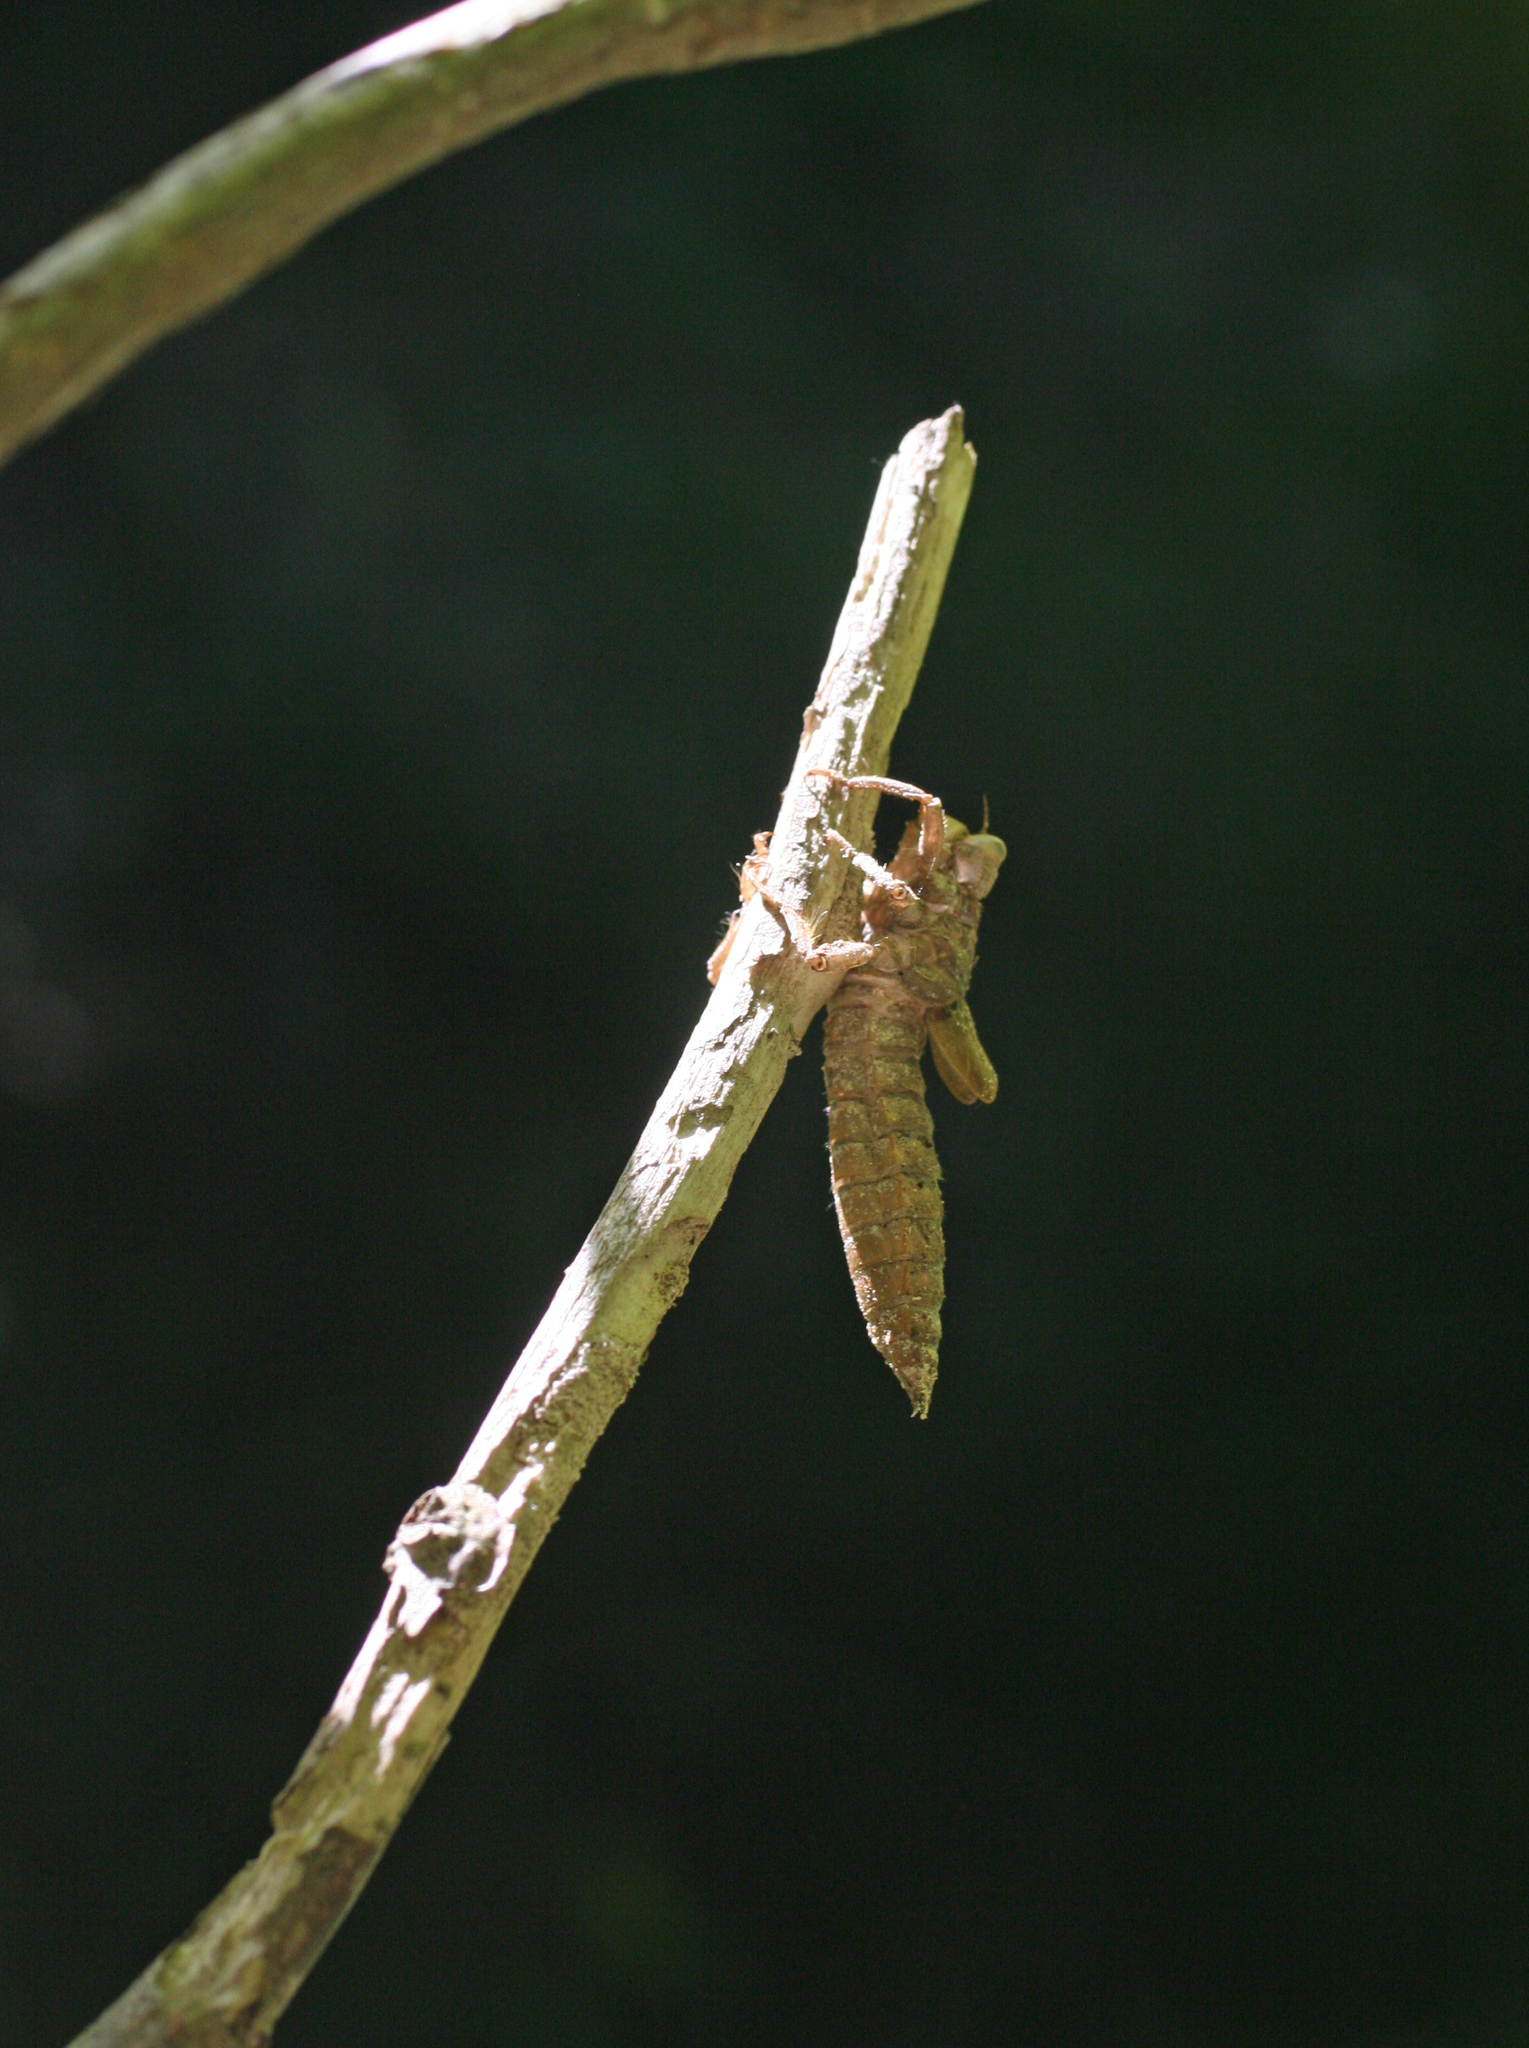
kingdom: Animalia
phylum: Arthropoda
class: Insecta
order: Odonata
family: Cordulegastridae
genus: Cordulegaster
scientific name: Cordulegaster charpentieri
